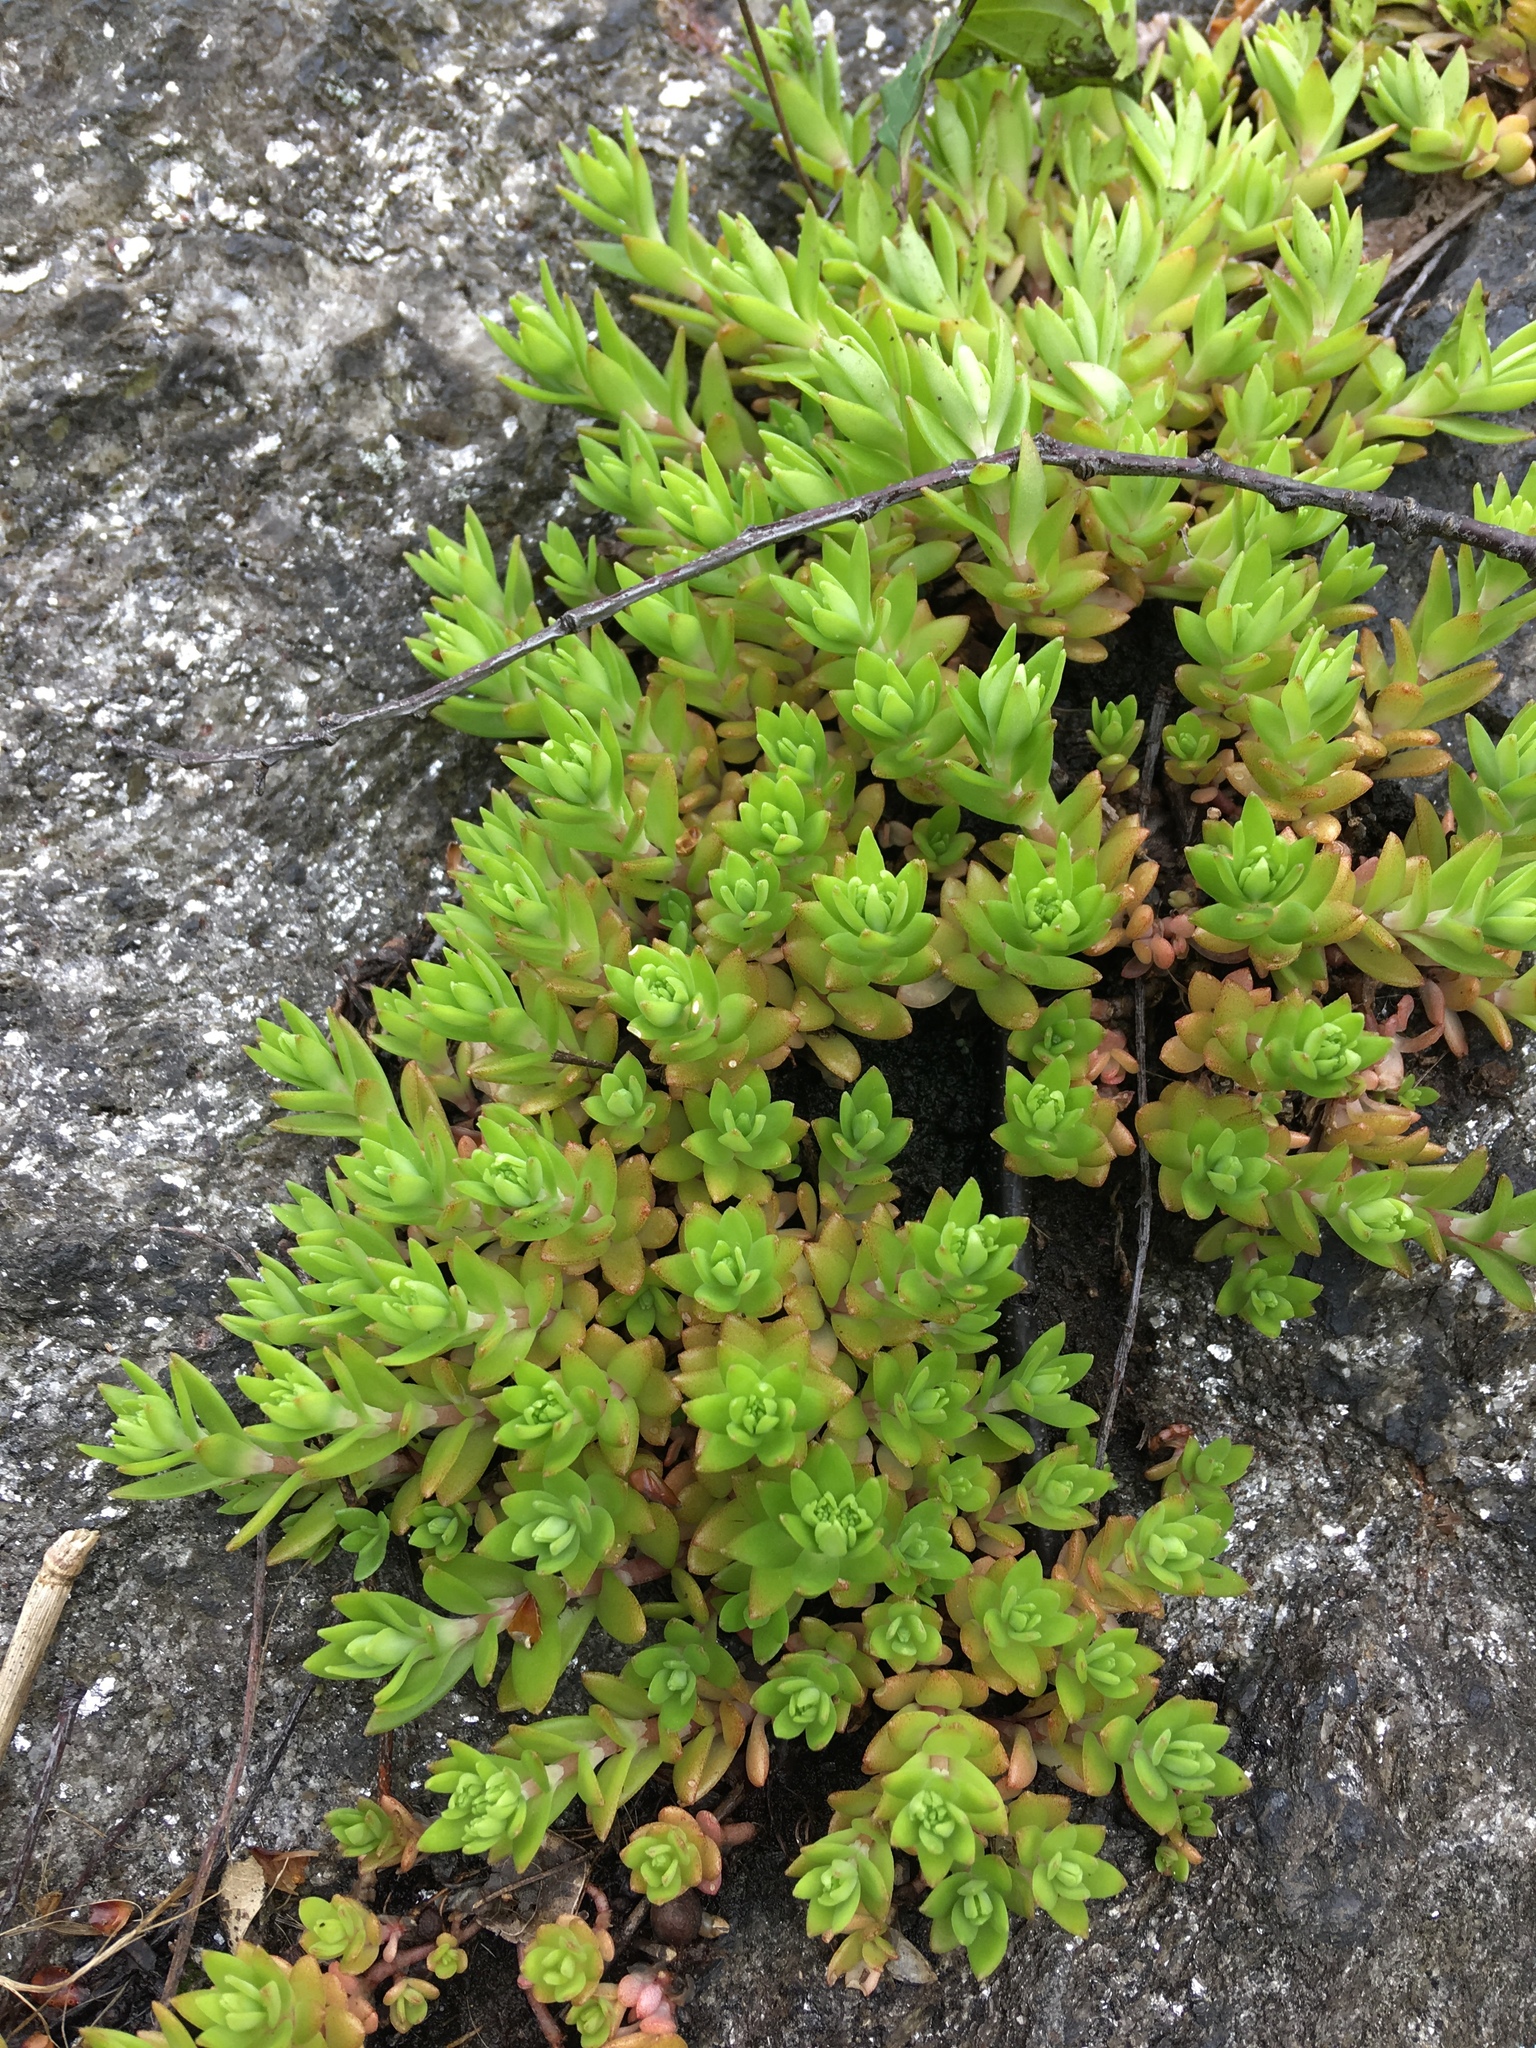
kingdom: Plantae
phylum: Tracheophyta
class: Magnoliopsida
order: Saxifragales
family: Crassulaceae
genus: Sedum
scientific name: Sedum sarmentosum
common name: Stringy stonecrop
